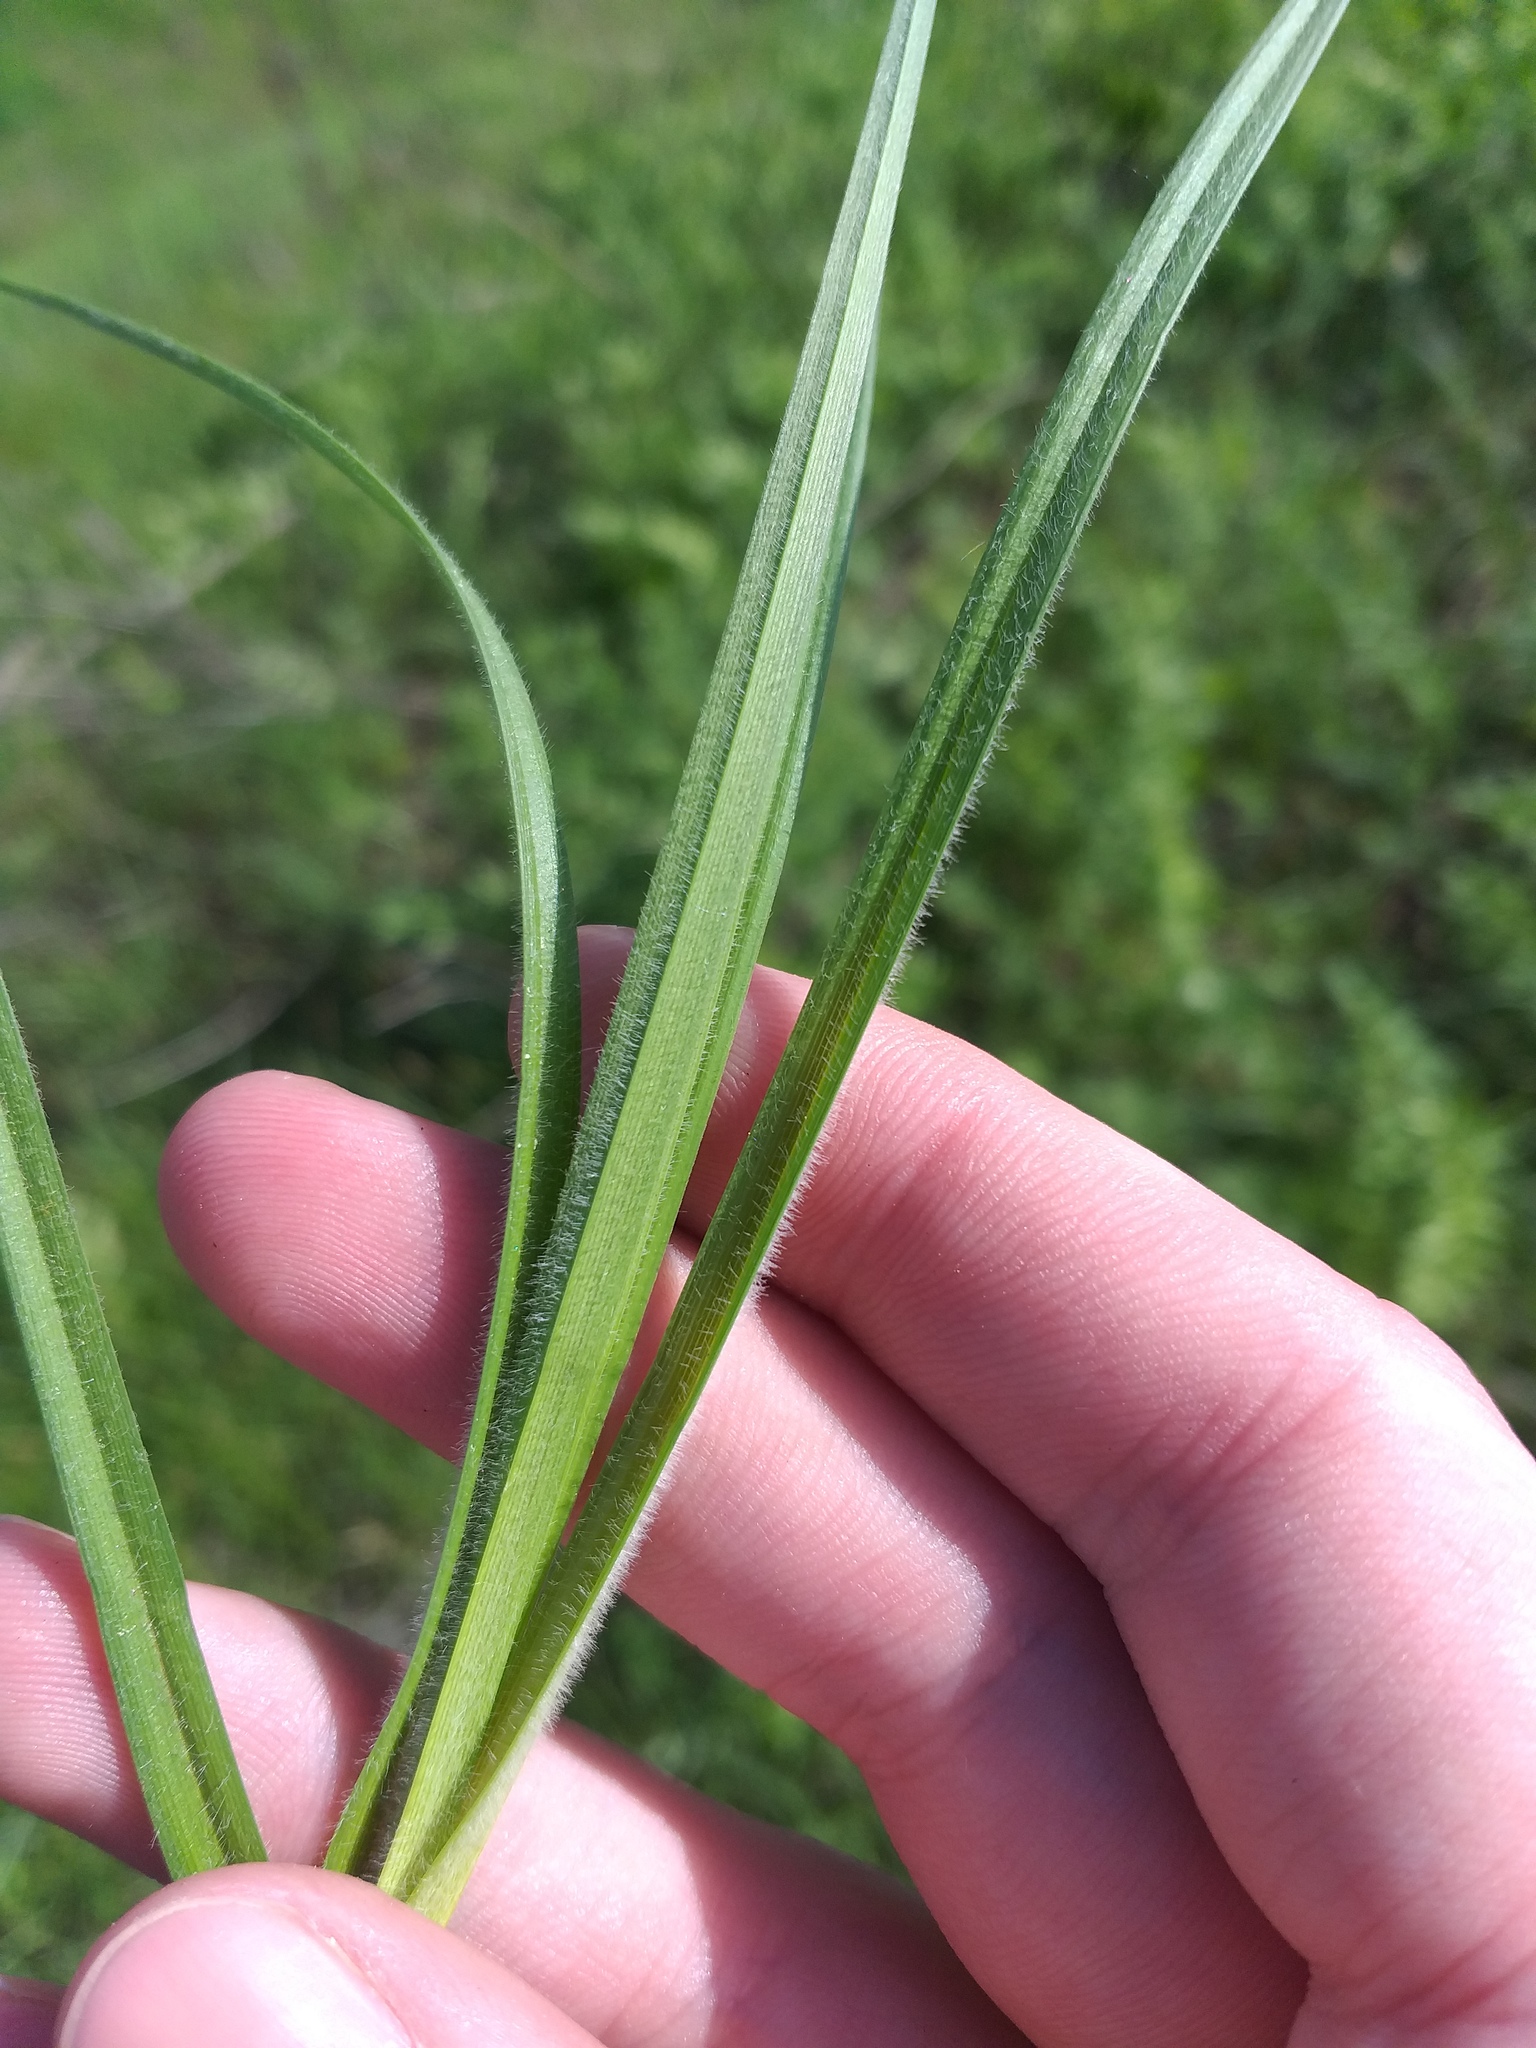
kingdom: Plantae
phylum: Tracheophyta
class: Liliopsida
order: Poales
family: Cyperaceae
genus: Carex
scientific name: Carex hirta
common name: Hairy sedge
